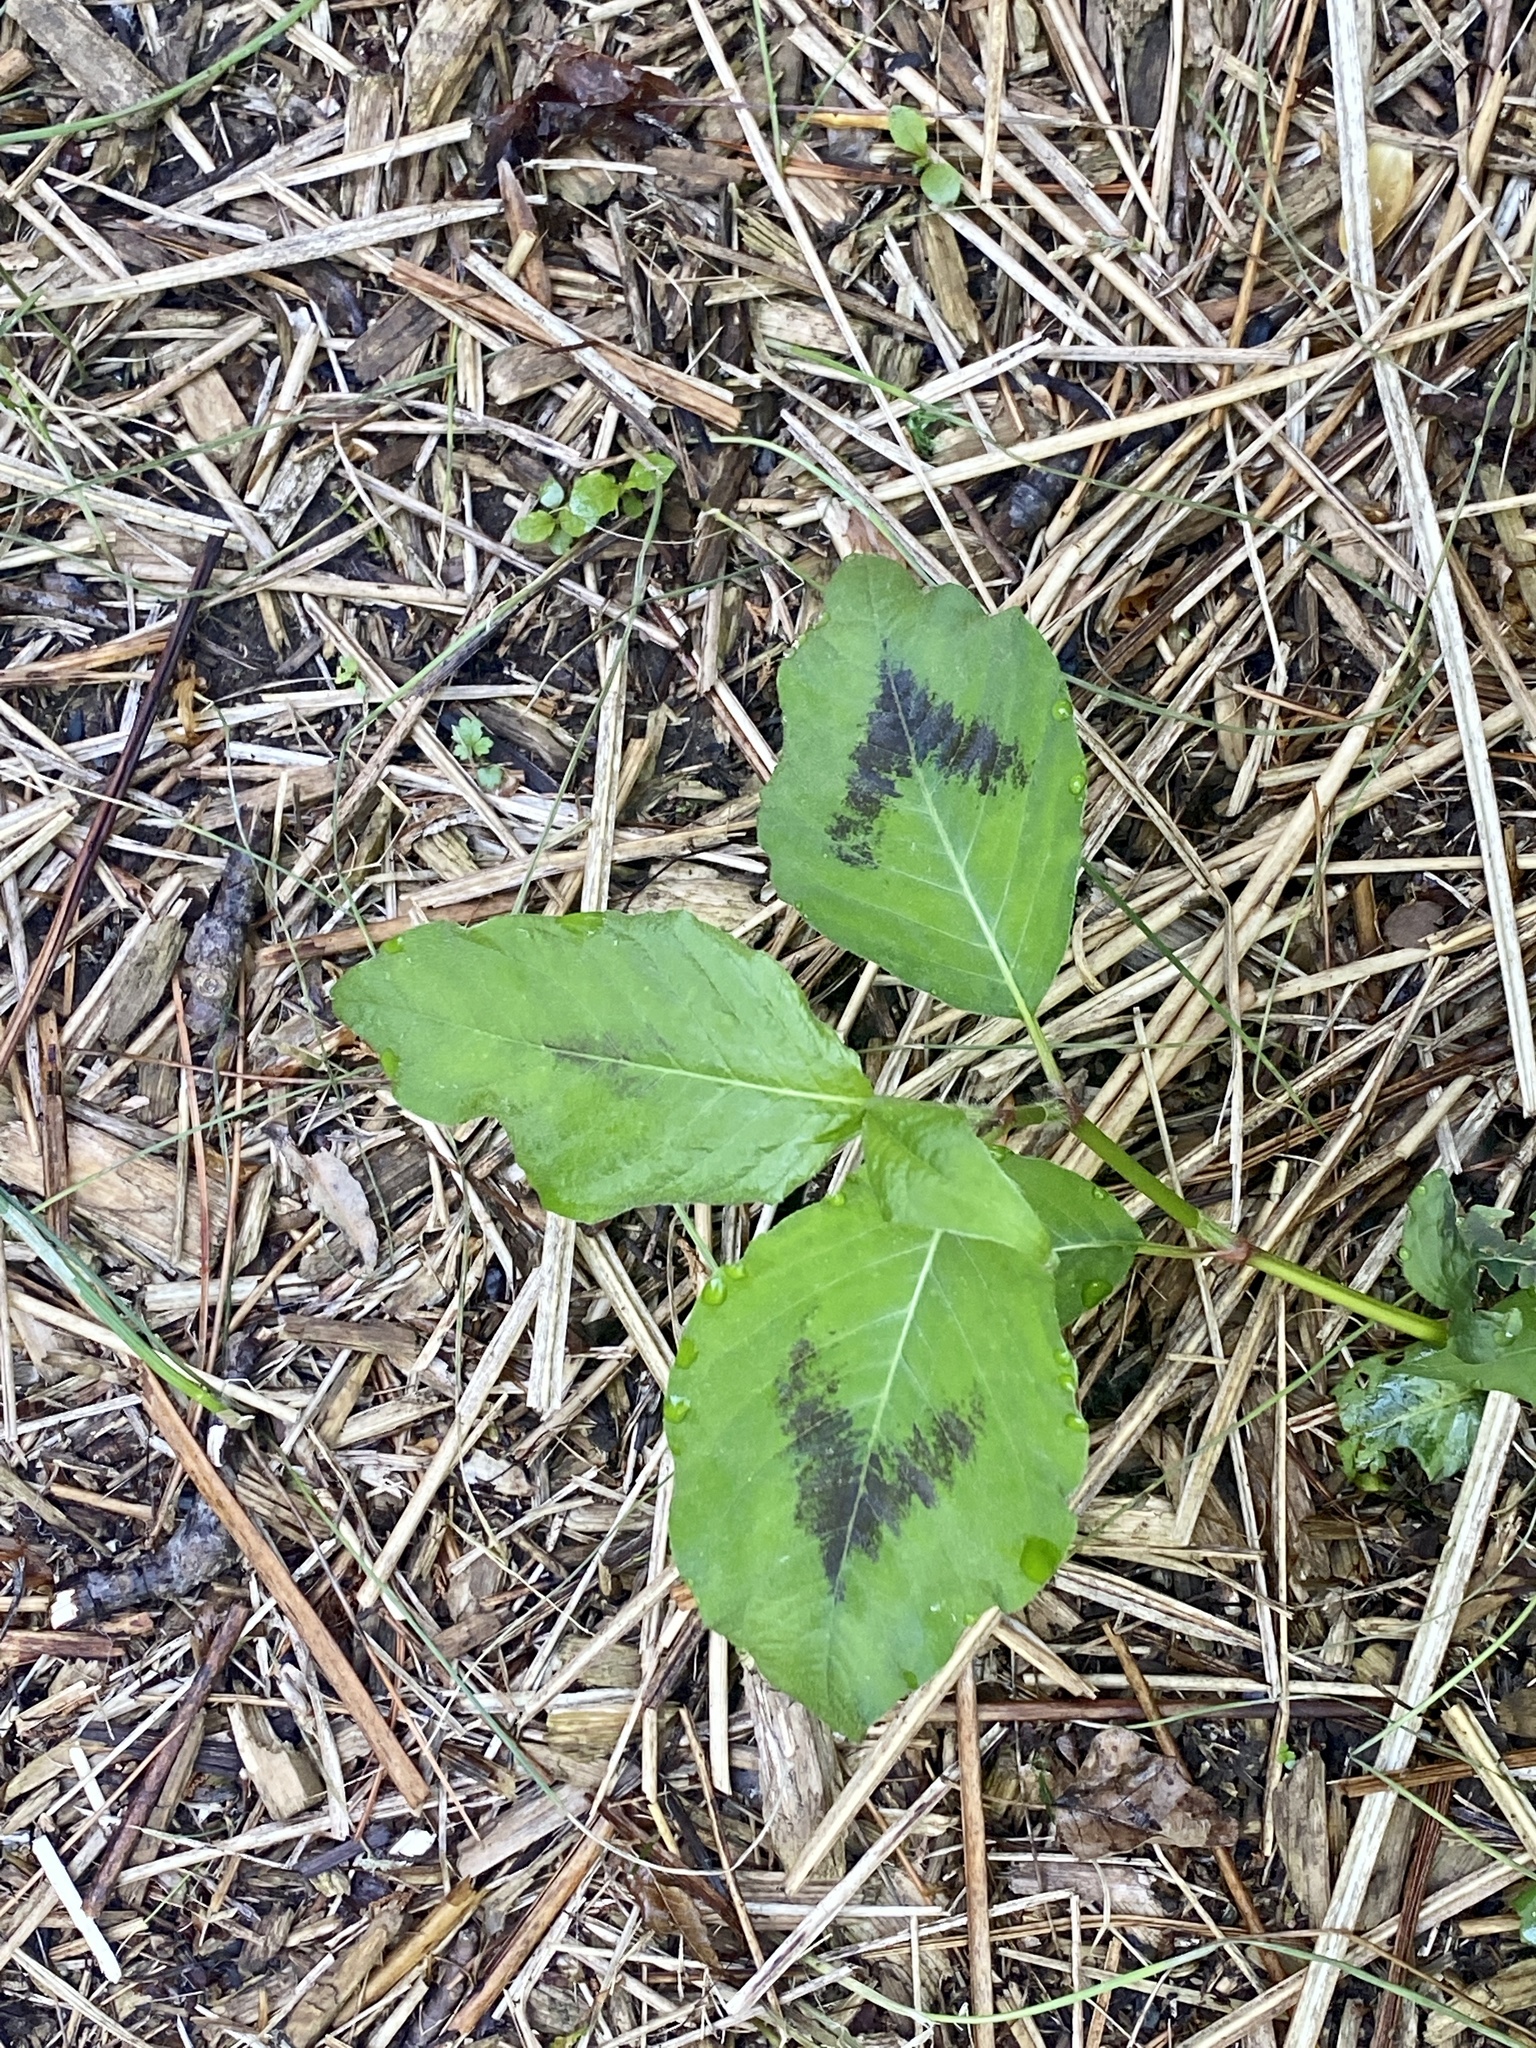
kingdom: Plantae
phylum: Tracheophyta
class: Magnoliopsida
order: Caryophyllales
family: Polygonaceae
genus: Persicaria
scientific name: Persicaria virginiana
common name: Jumpseed
